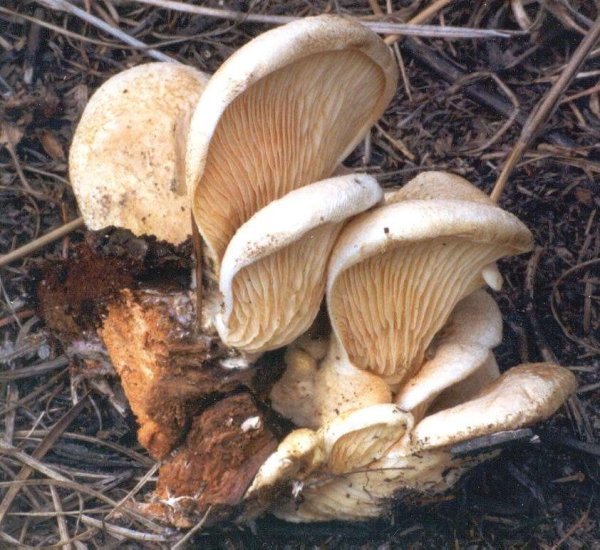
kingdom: Fungi
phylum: Basidiomycota
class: Agaricomycetes
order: Boletales
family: Tapinellaceae
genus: Tapinella
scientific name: Tapinella panuoides
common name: Oyster rollrim
